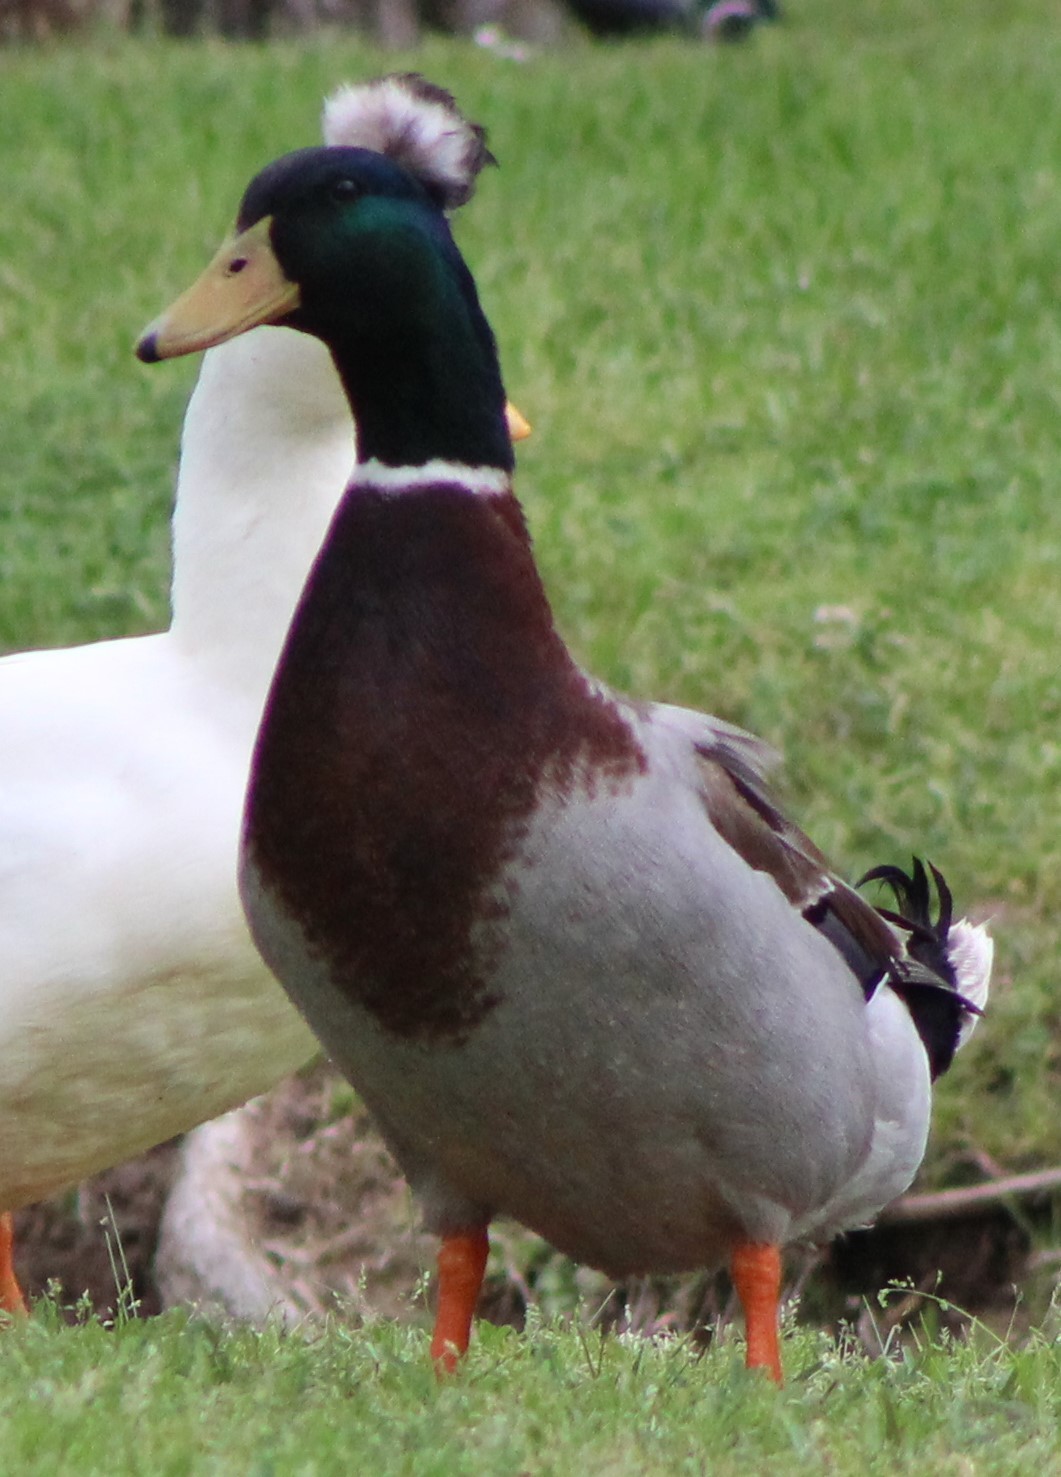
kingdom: Animalia
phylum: Chordata
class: Aves
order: Anseriformes
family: Anatidae
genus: Anas
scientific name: Anas platyrhynchos
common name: Mallard
